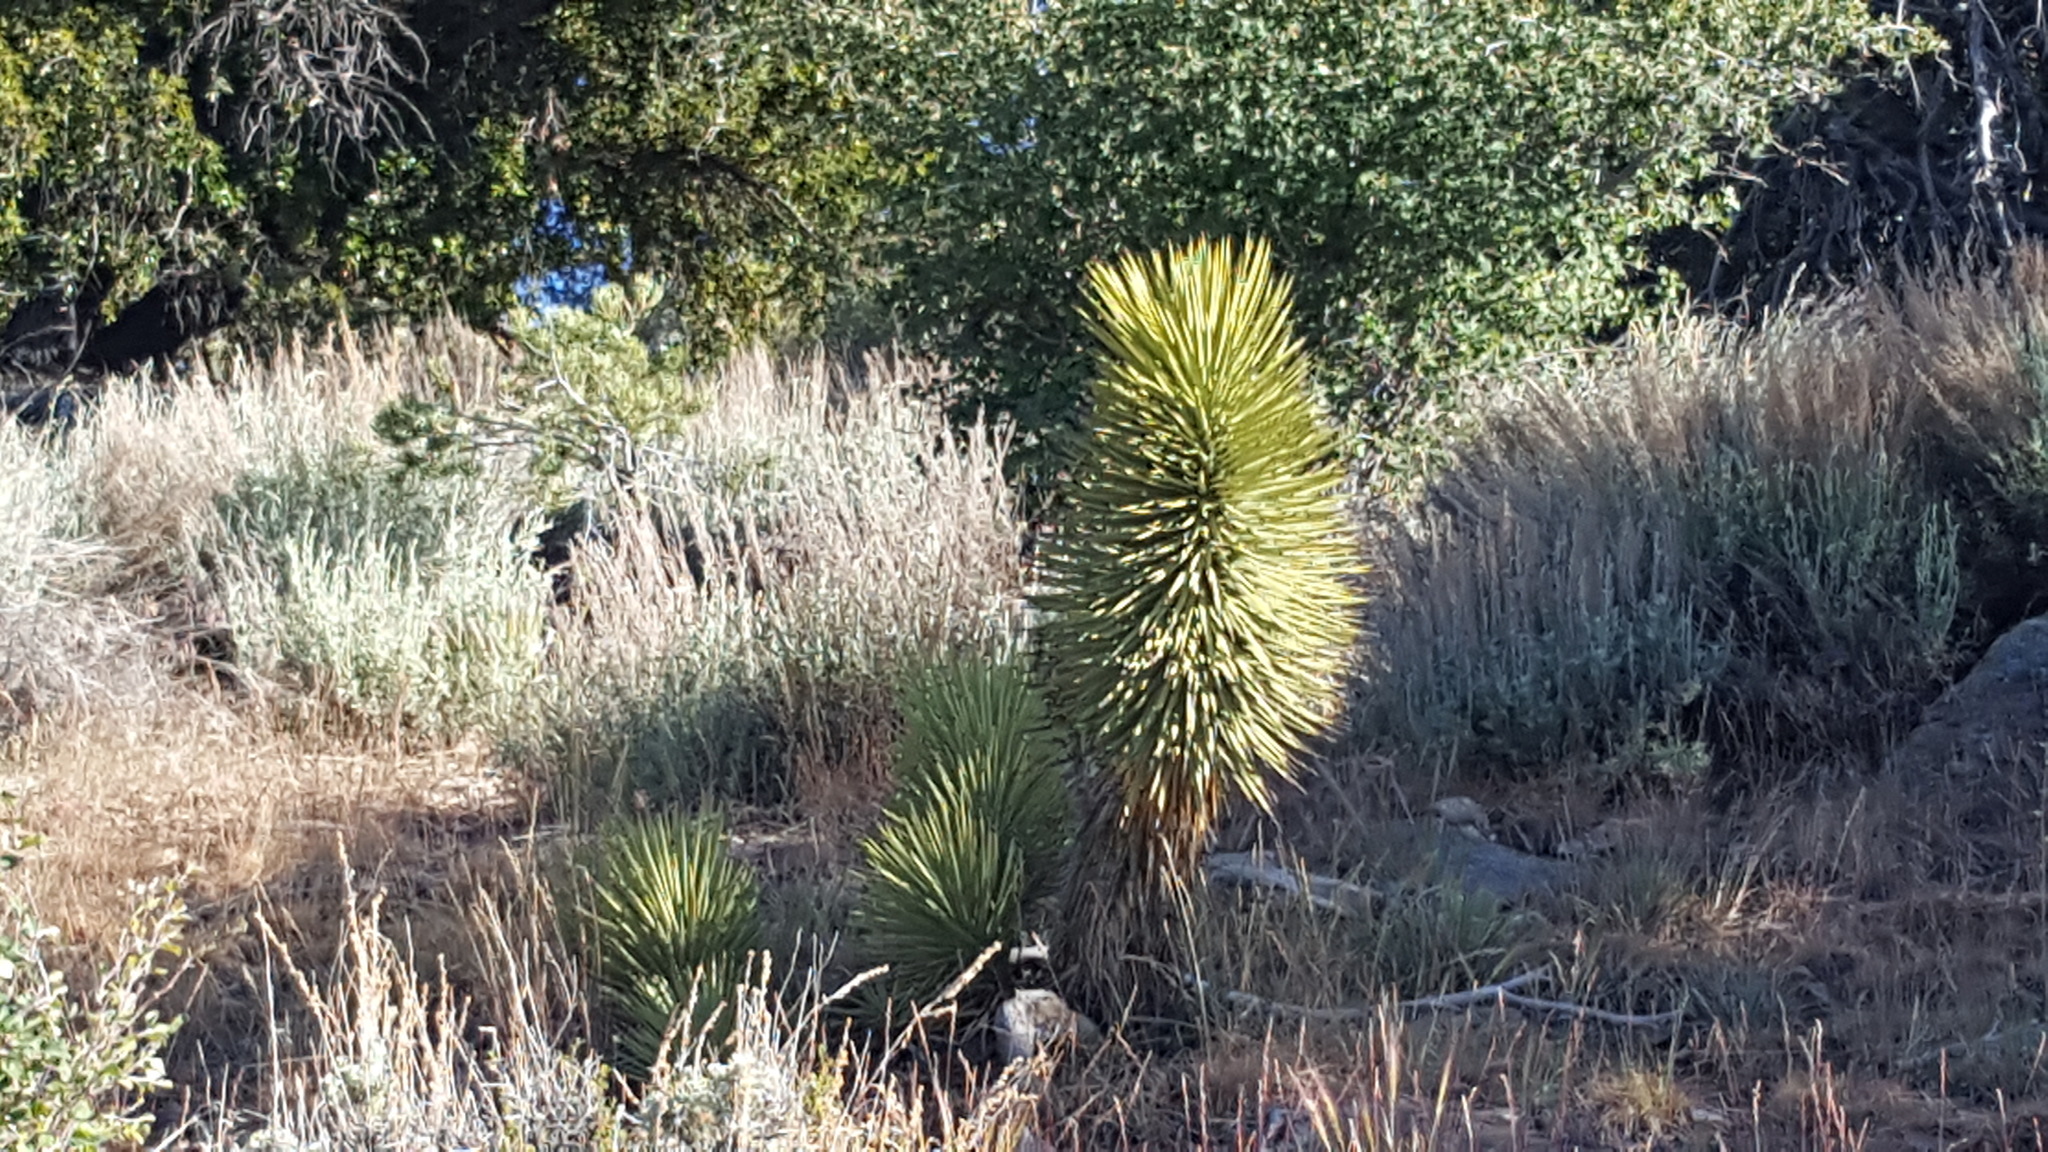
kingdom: Plantae
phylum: Tracheophyta
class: Liliopsida
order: Asparagales
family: Asparagaceae
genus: Yucca
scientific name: Yucca brevifolia
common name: Joshua tree
